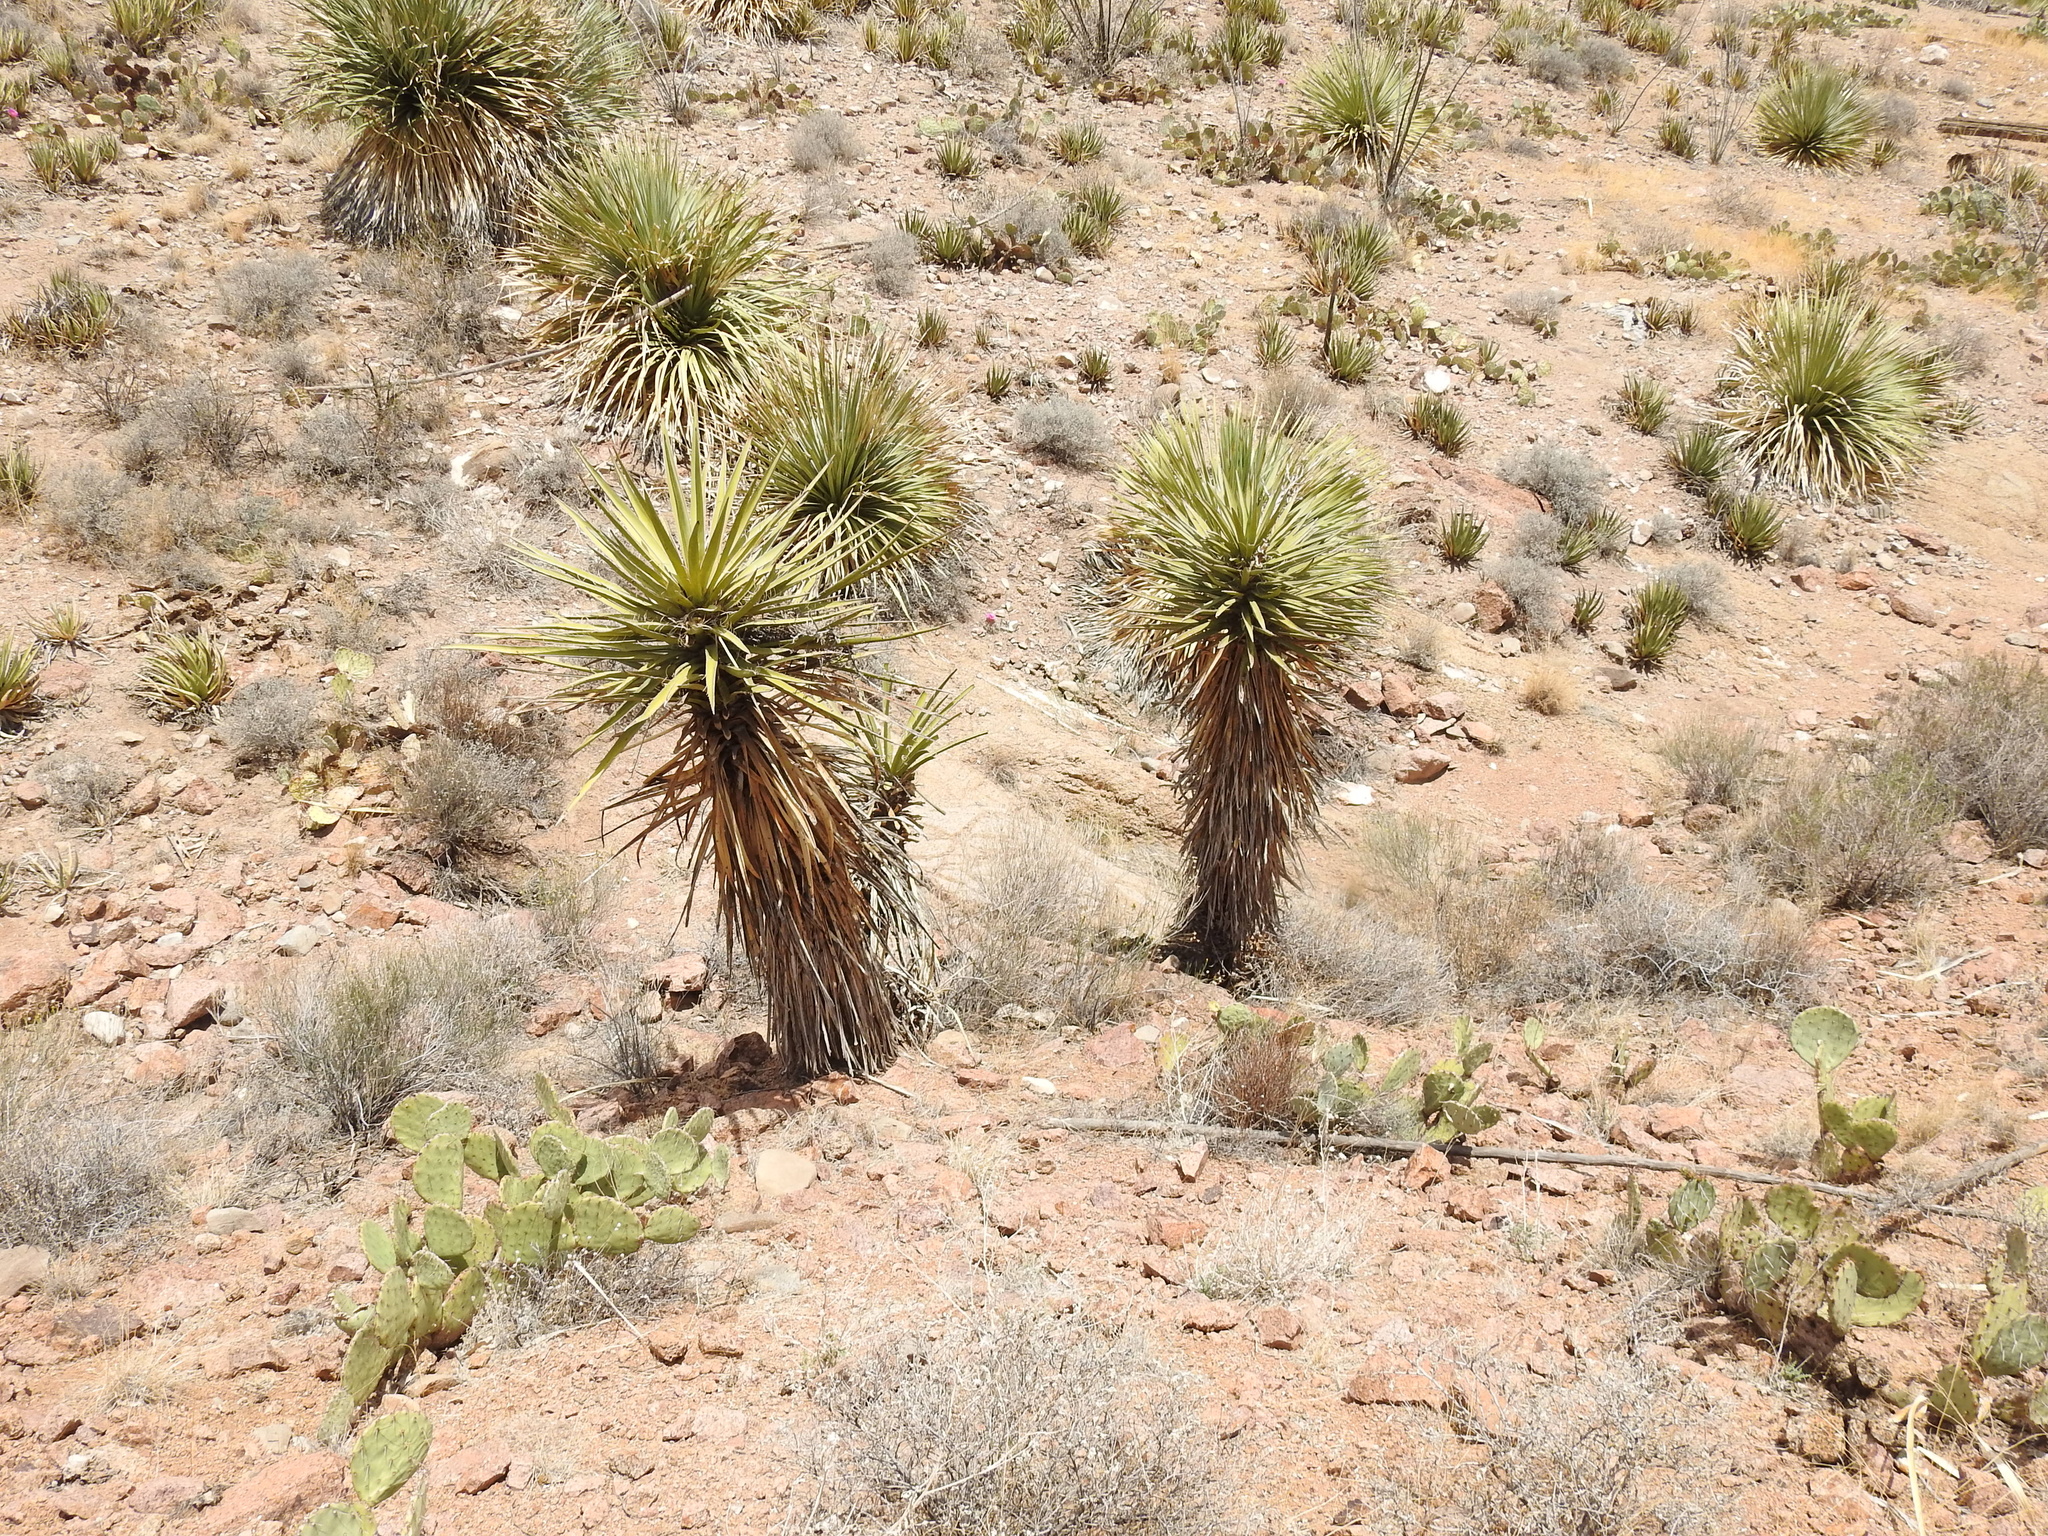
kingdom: Plantae
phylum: Tracheophyta
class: Liliopsida
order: Asparagales
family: Asparagaceae
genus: Yucca
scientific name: Yucca treculiana
